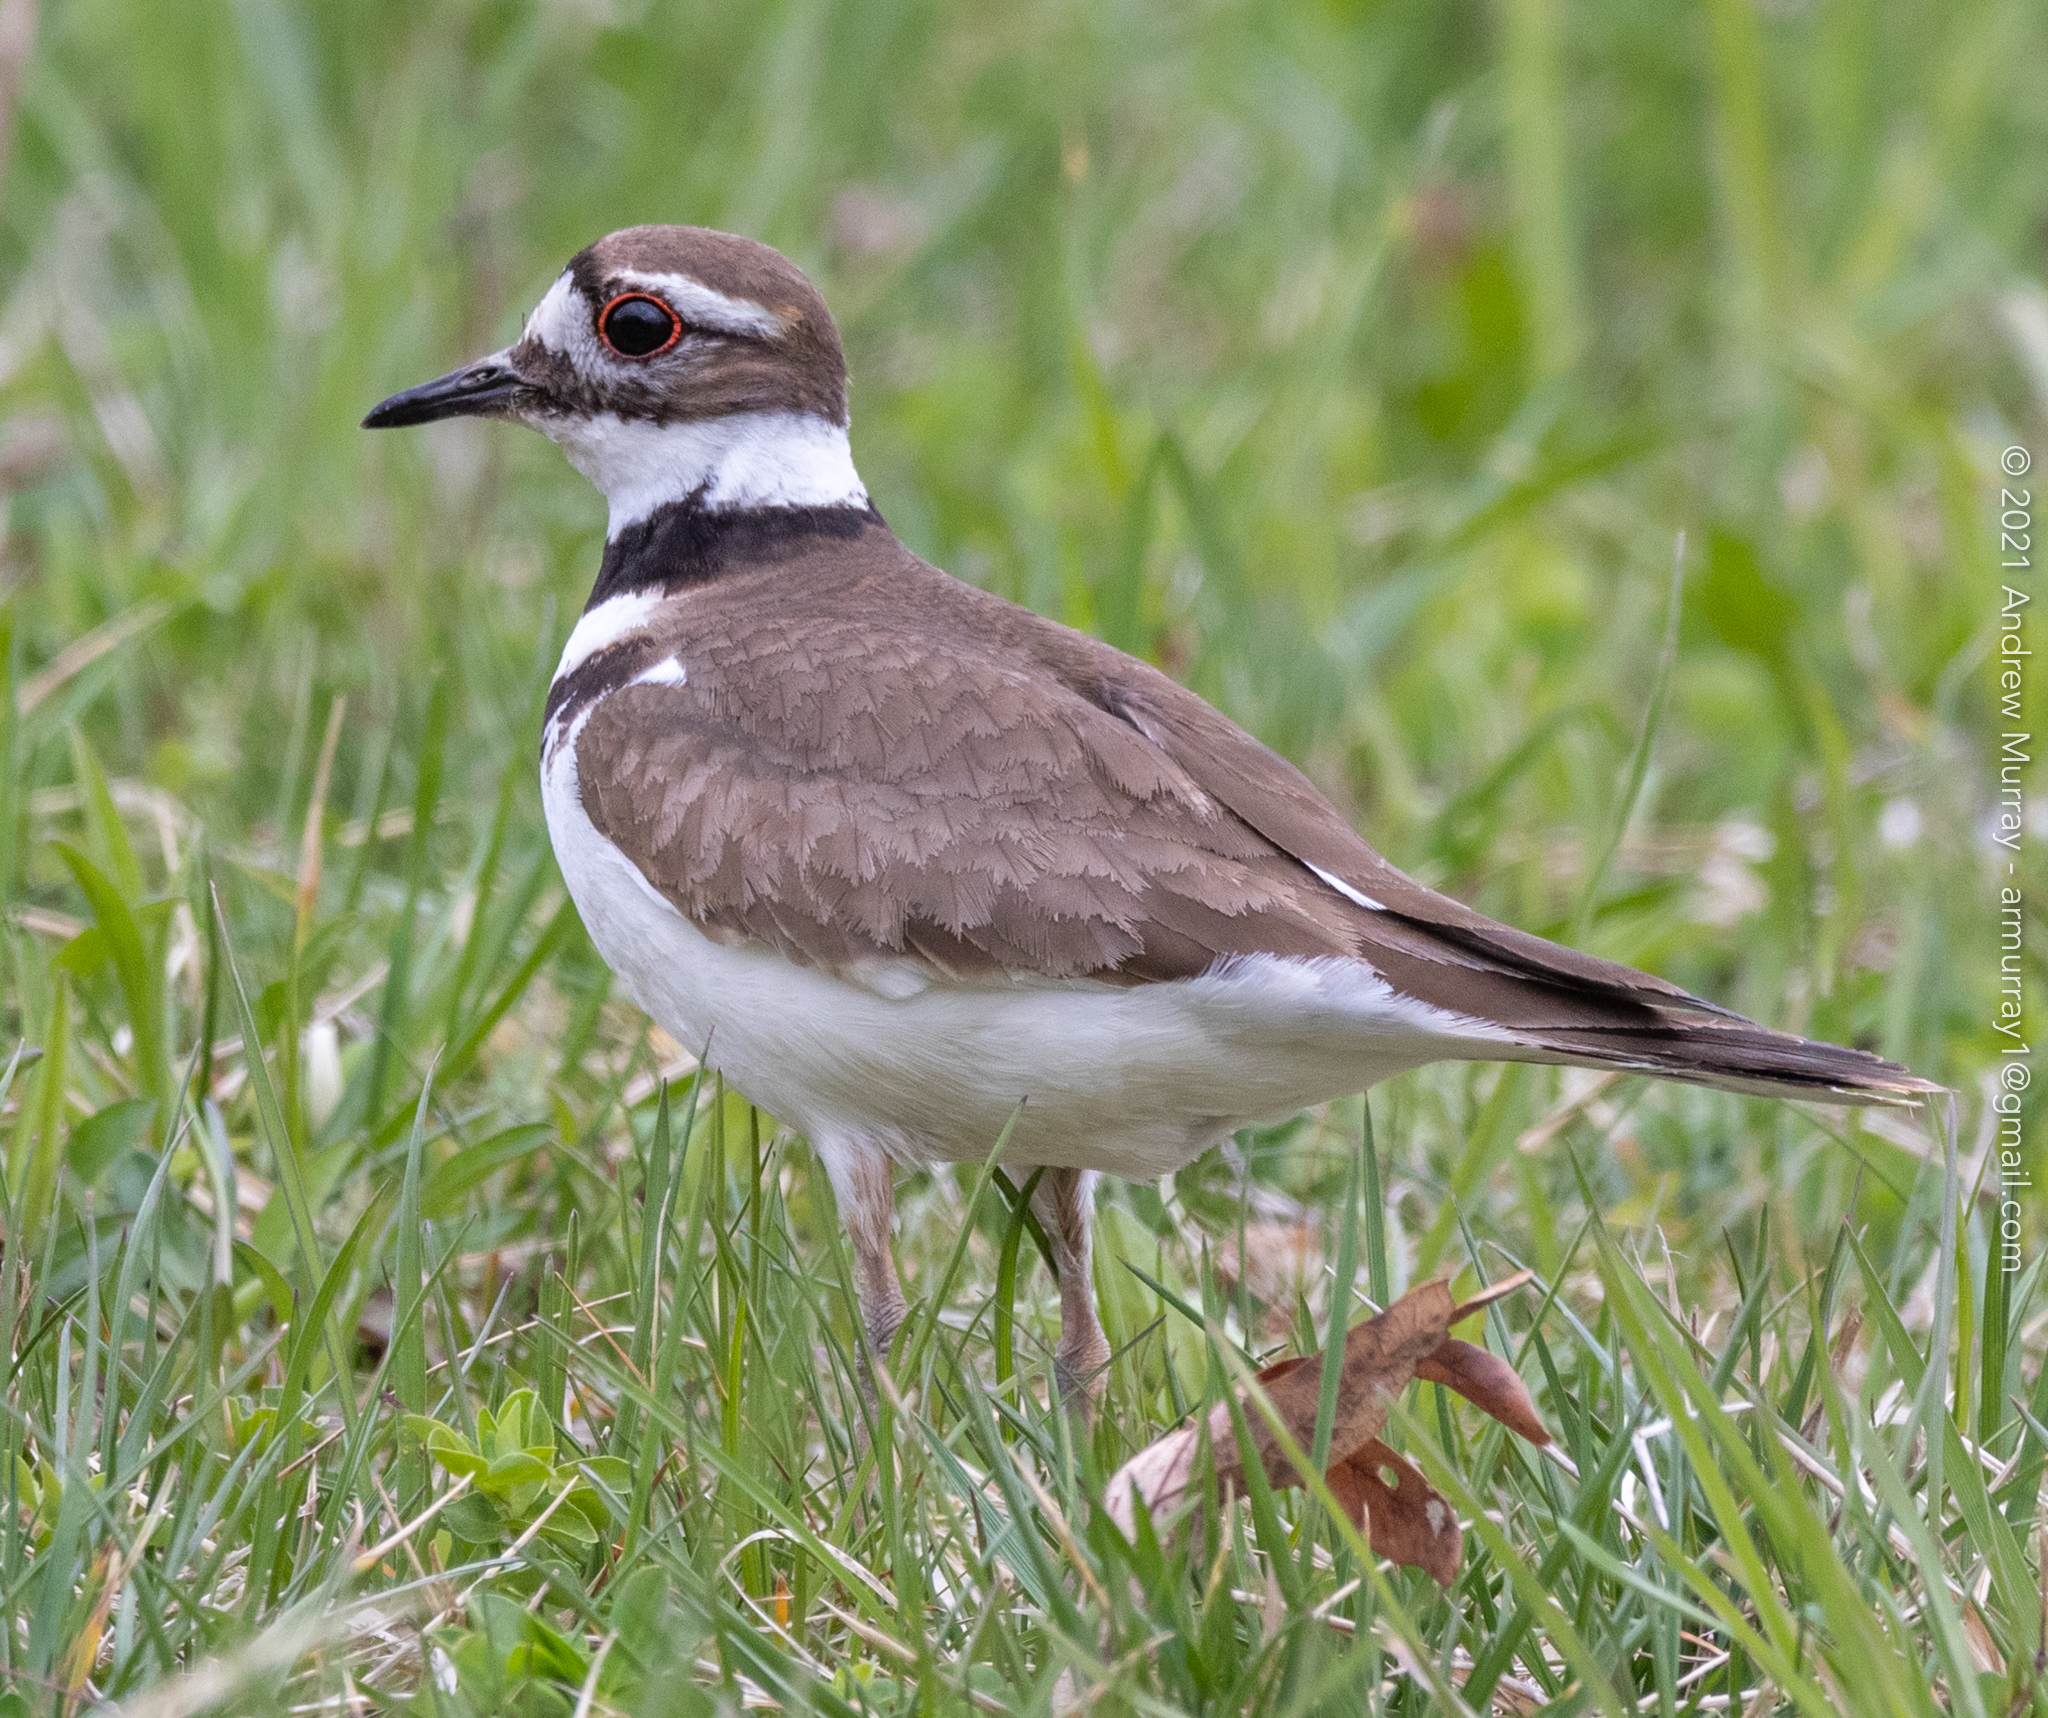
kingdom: Animalia
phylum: Chordata
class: Aves
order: Charadriiformes
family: Charadriidae
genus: Charadrius
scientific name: Charadrius vociferus
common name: Killdeer
